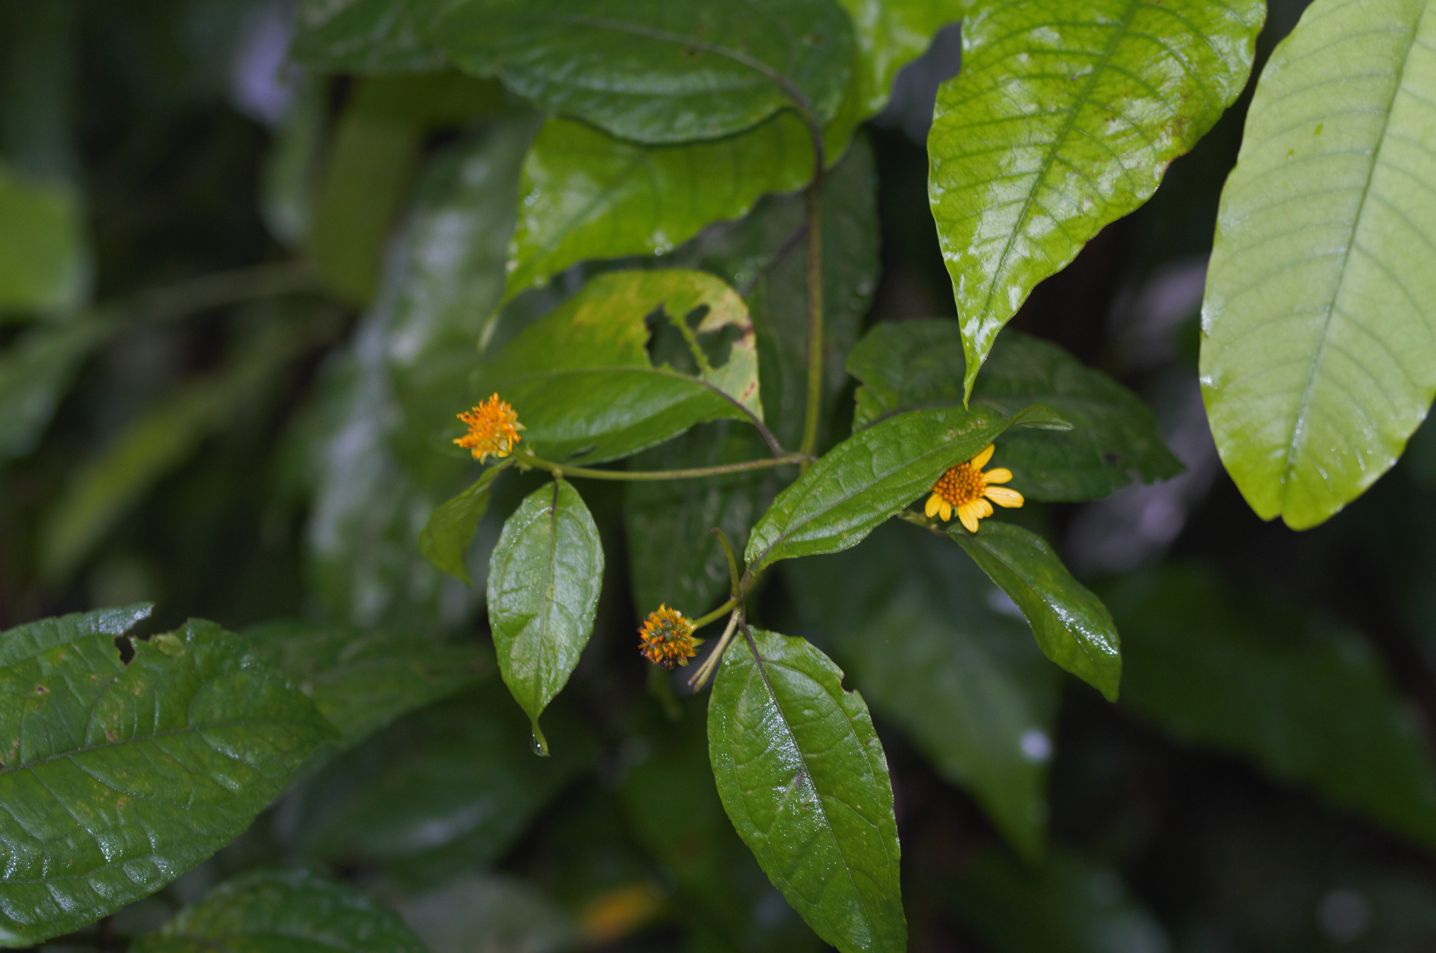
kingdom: Plantae
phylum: Tracheophyta
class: Magnoliopsida
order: Asterales
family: Asteraceae
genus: Tilesia
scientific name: Tilesia baccata
